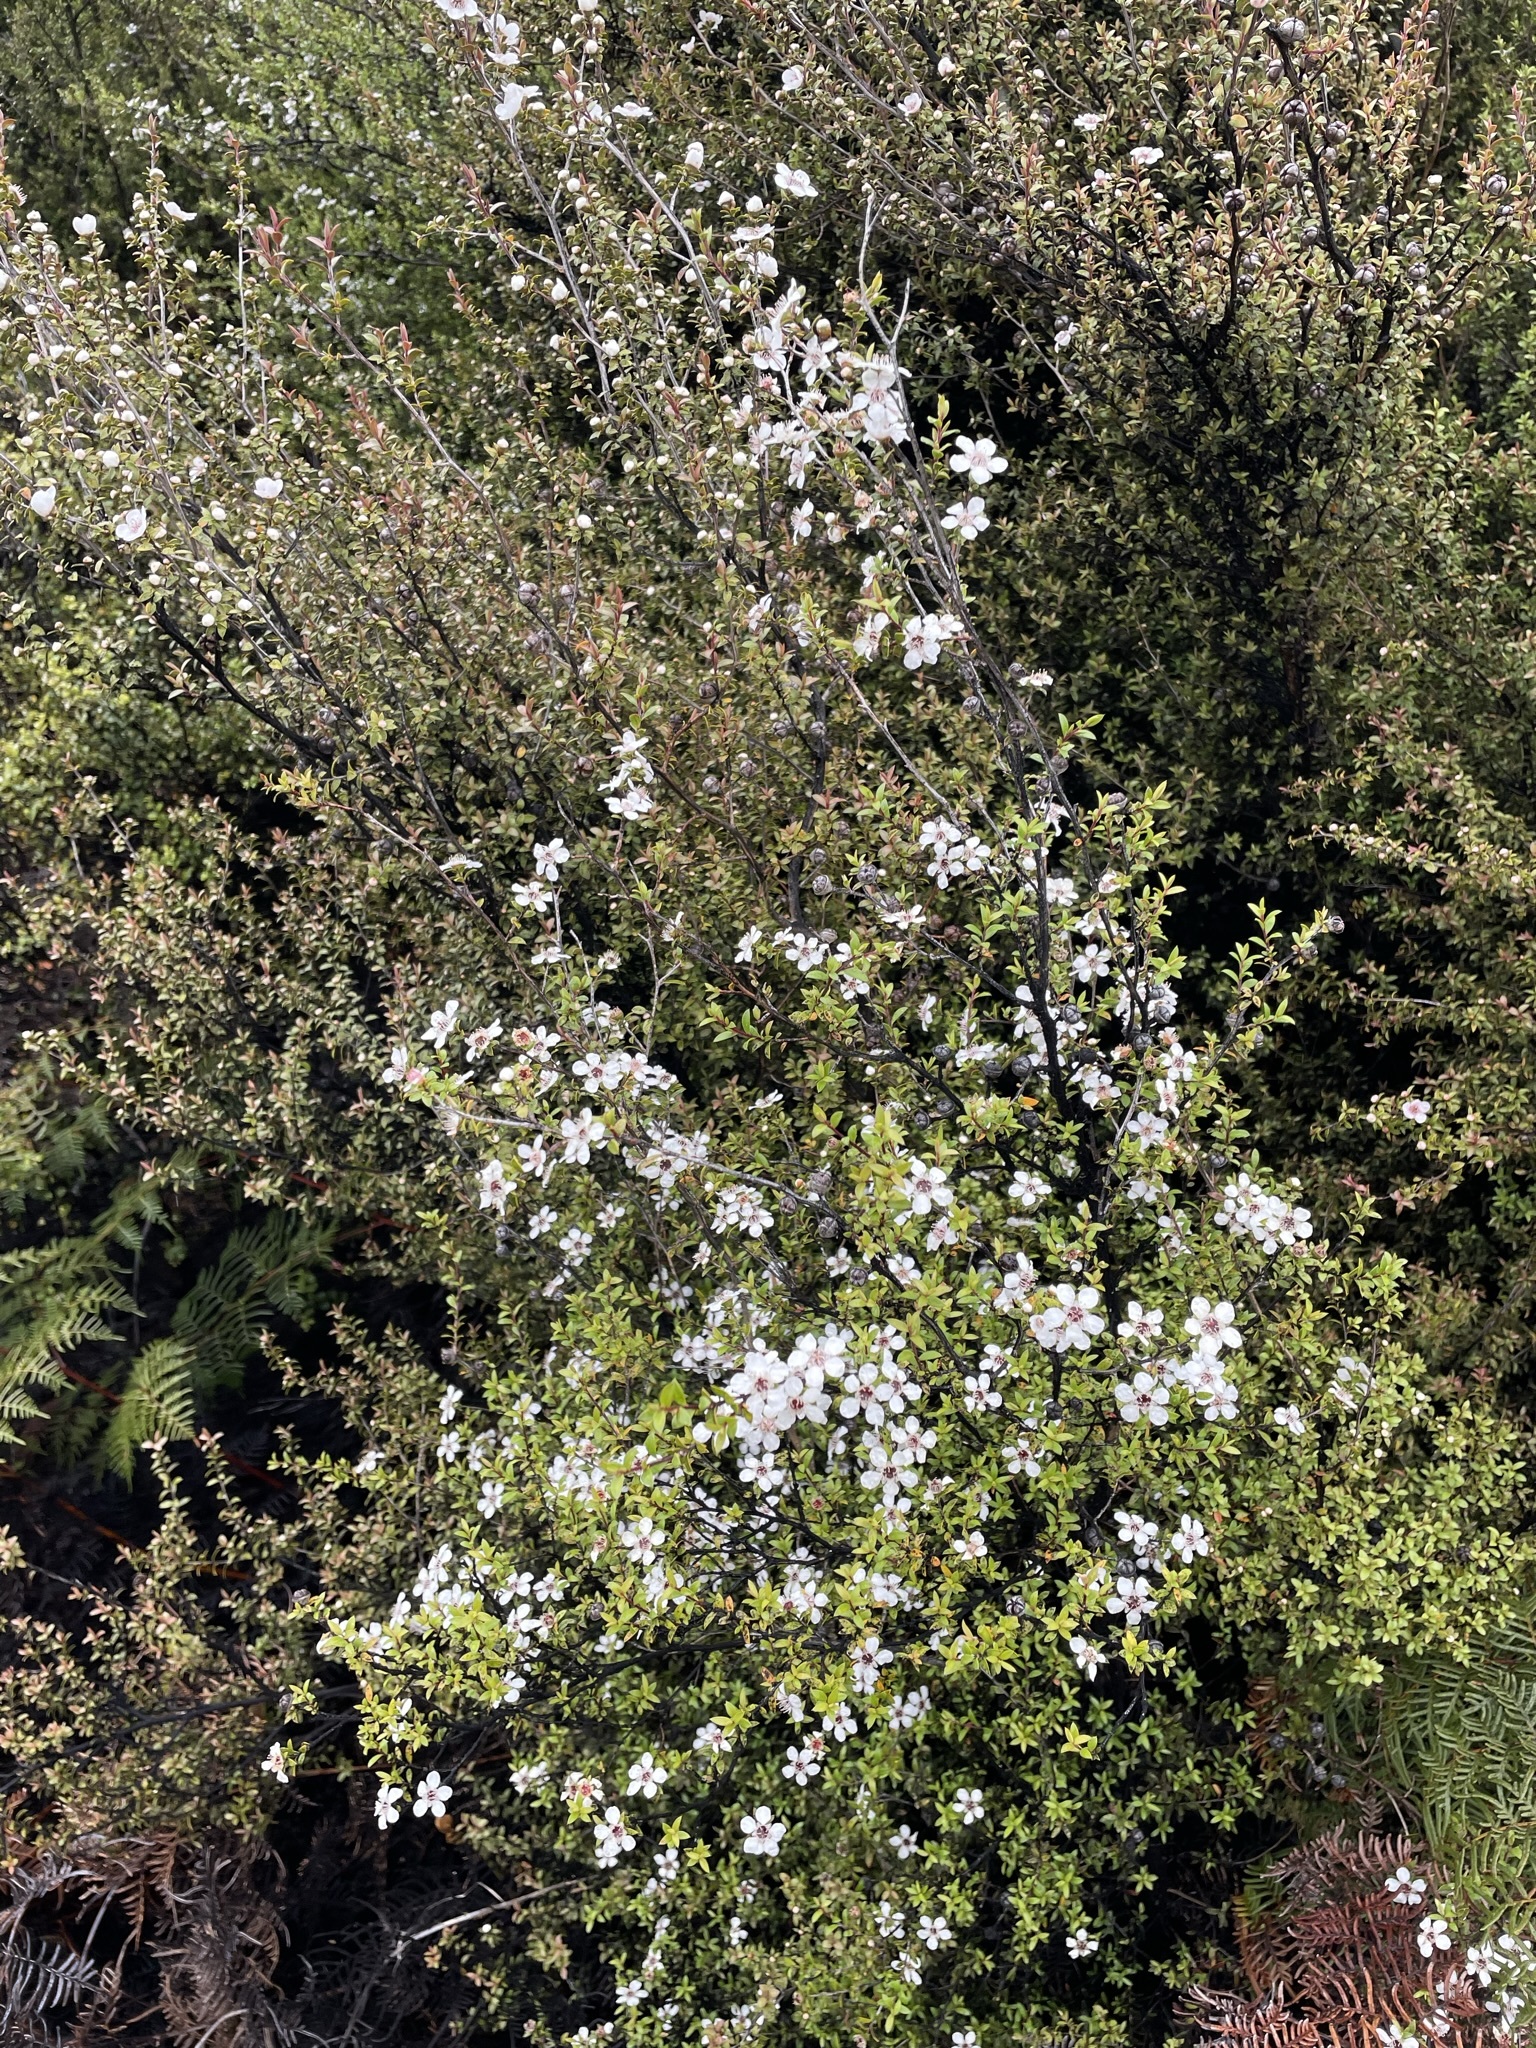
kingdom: Plantae
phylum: Tracheophyta
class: Magnoliopsida
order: Myrtales
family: Myrtaceae
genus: Leptospermum
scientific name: Leptospermum scoparium
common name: Broom tea-tree
